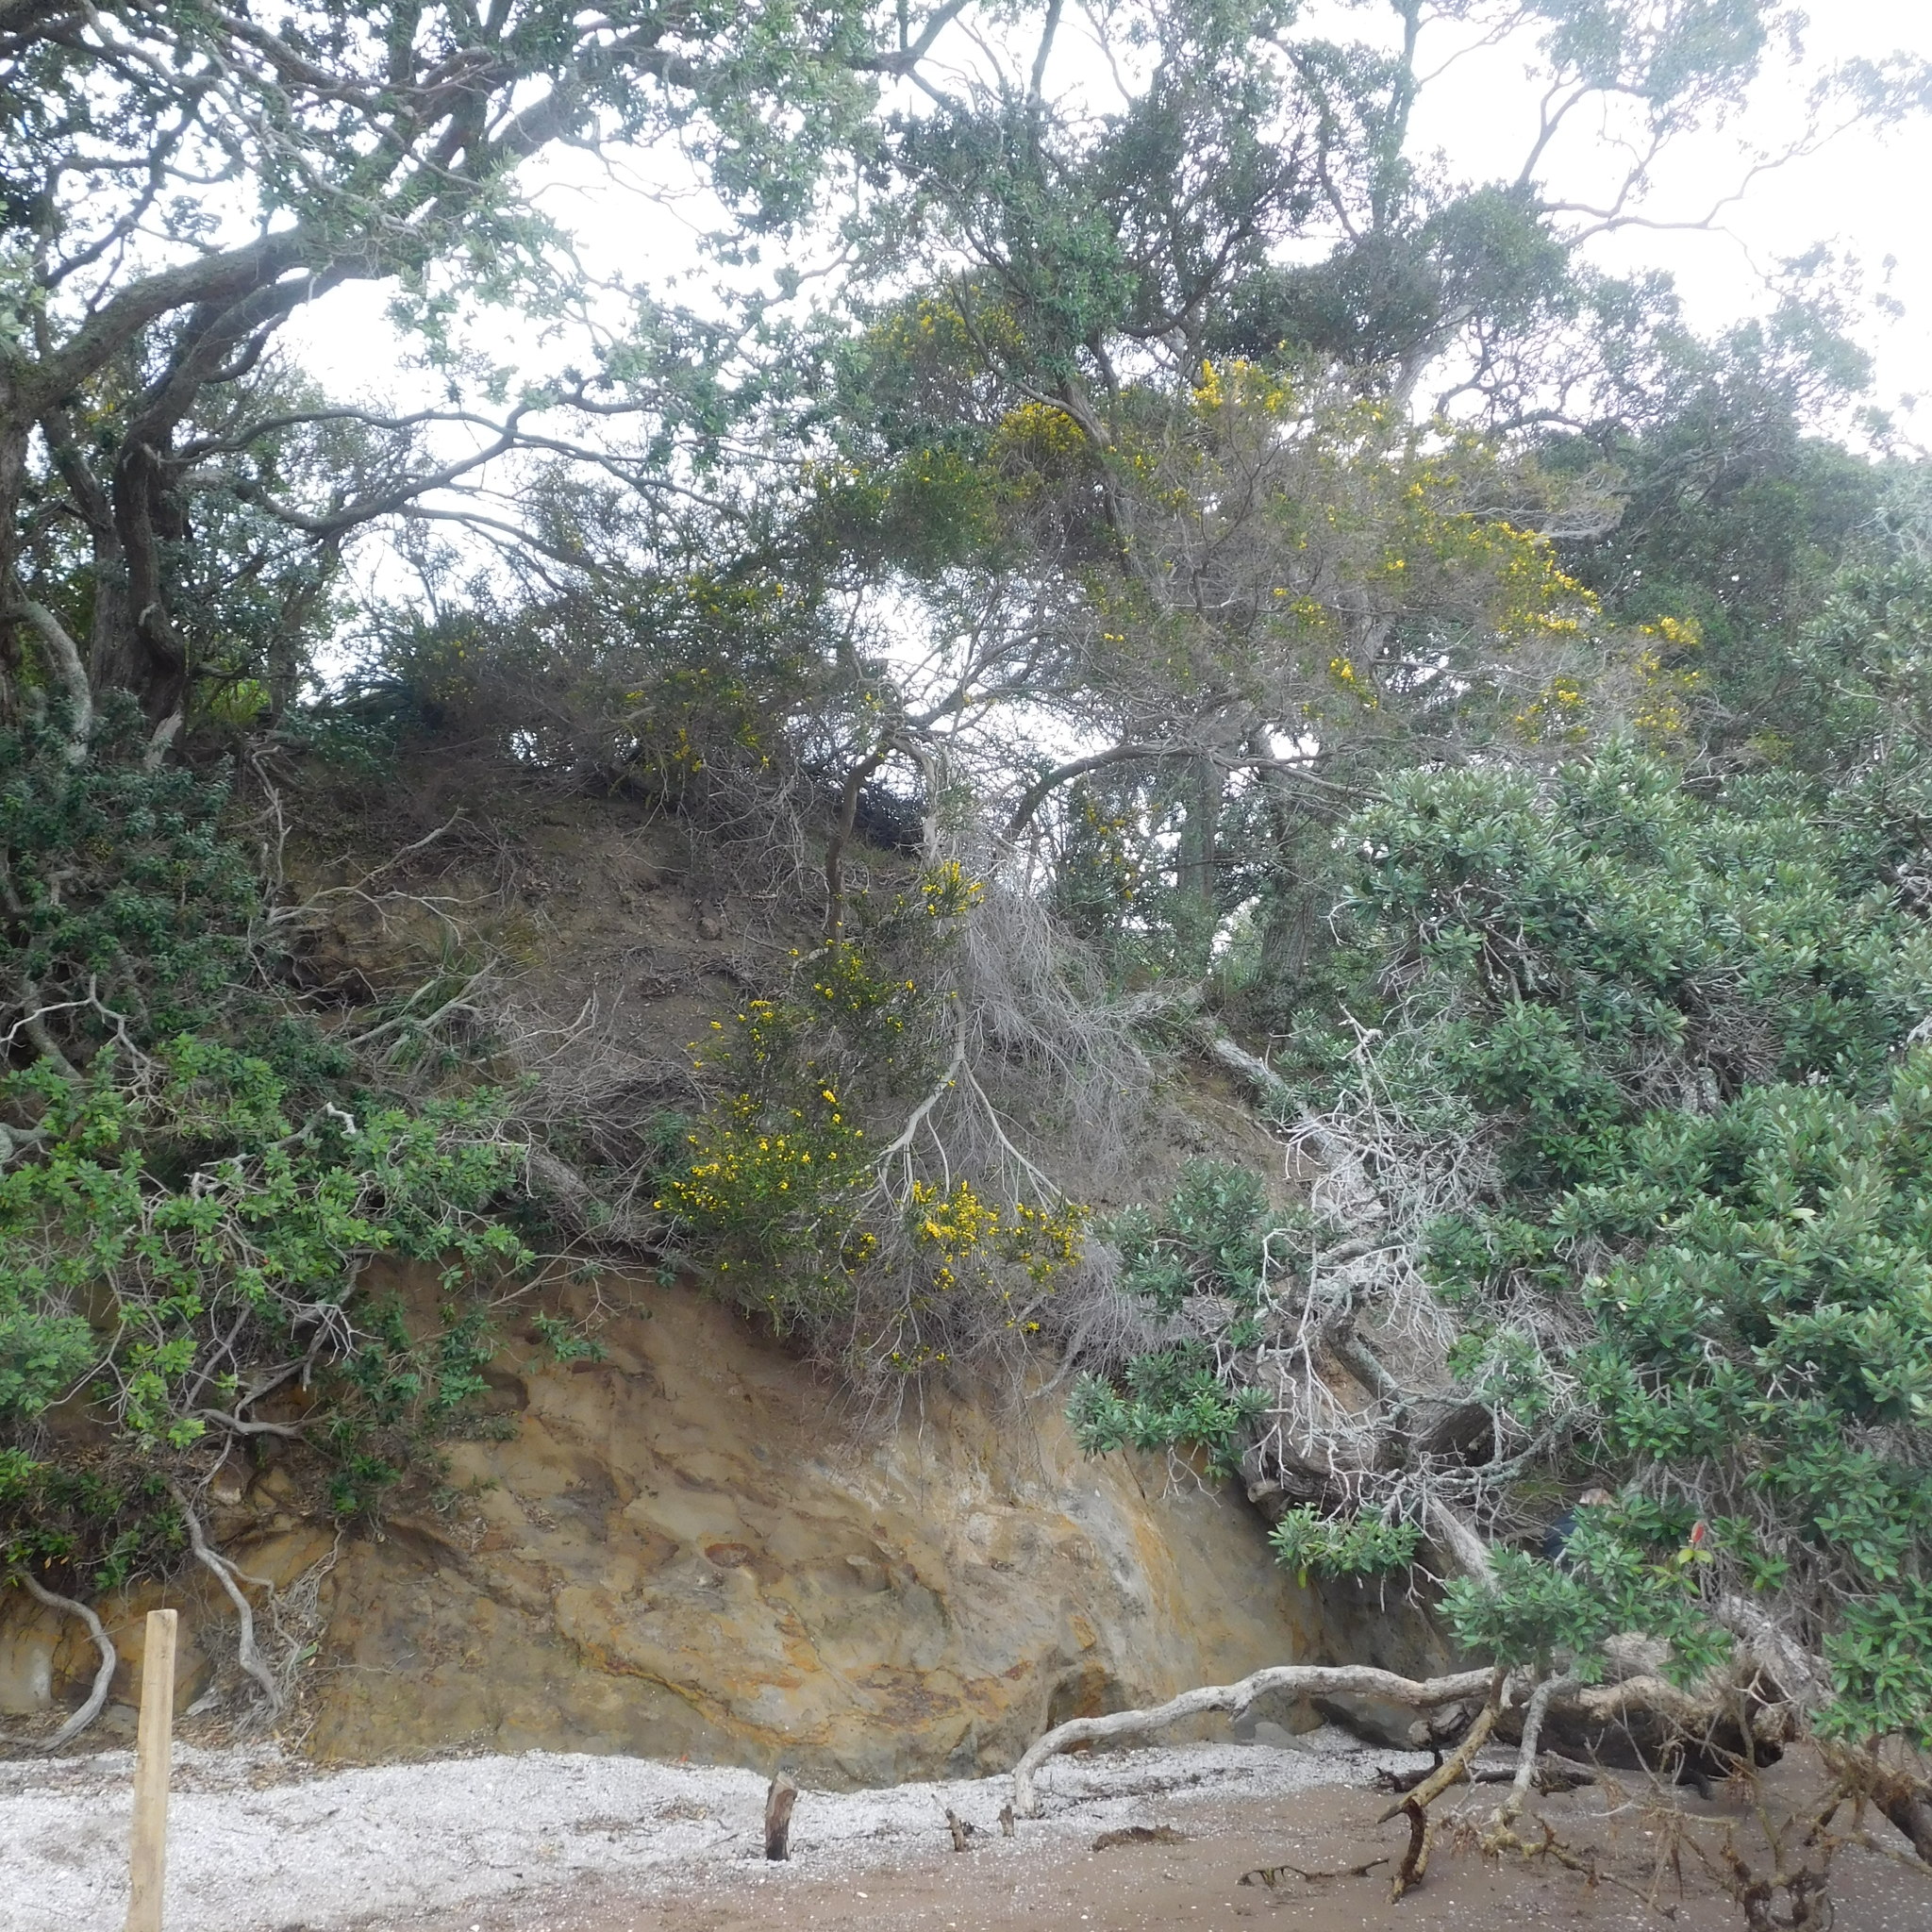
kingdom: Plantae
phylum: Tracheophyta
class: Magnoliopsida
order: Fabales
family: Fabaceae
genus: Acacia
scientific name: Acacia paradoxa
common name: Paradox acacia
